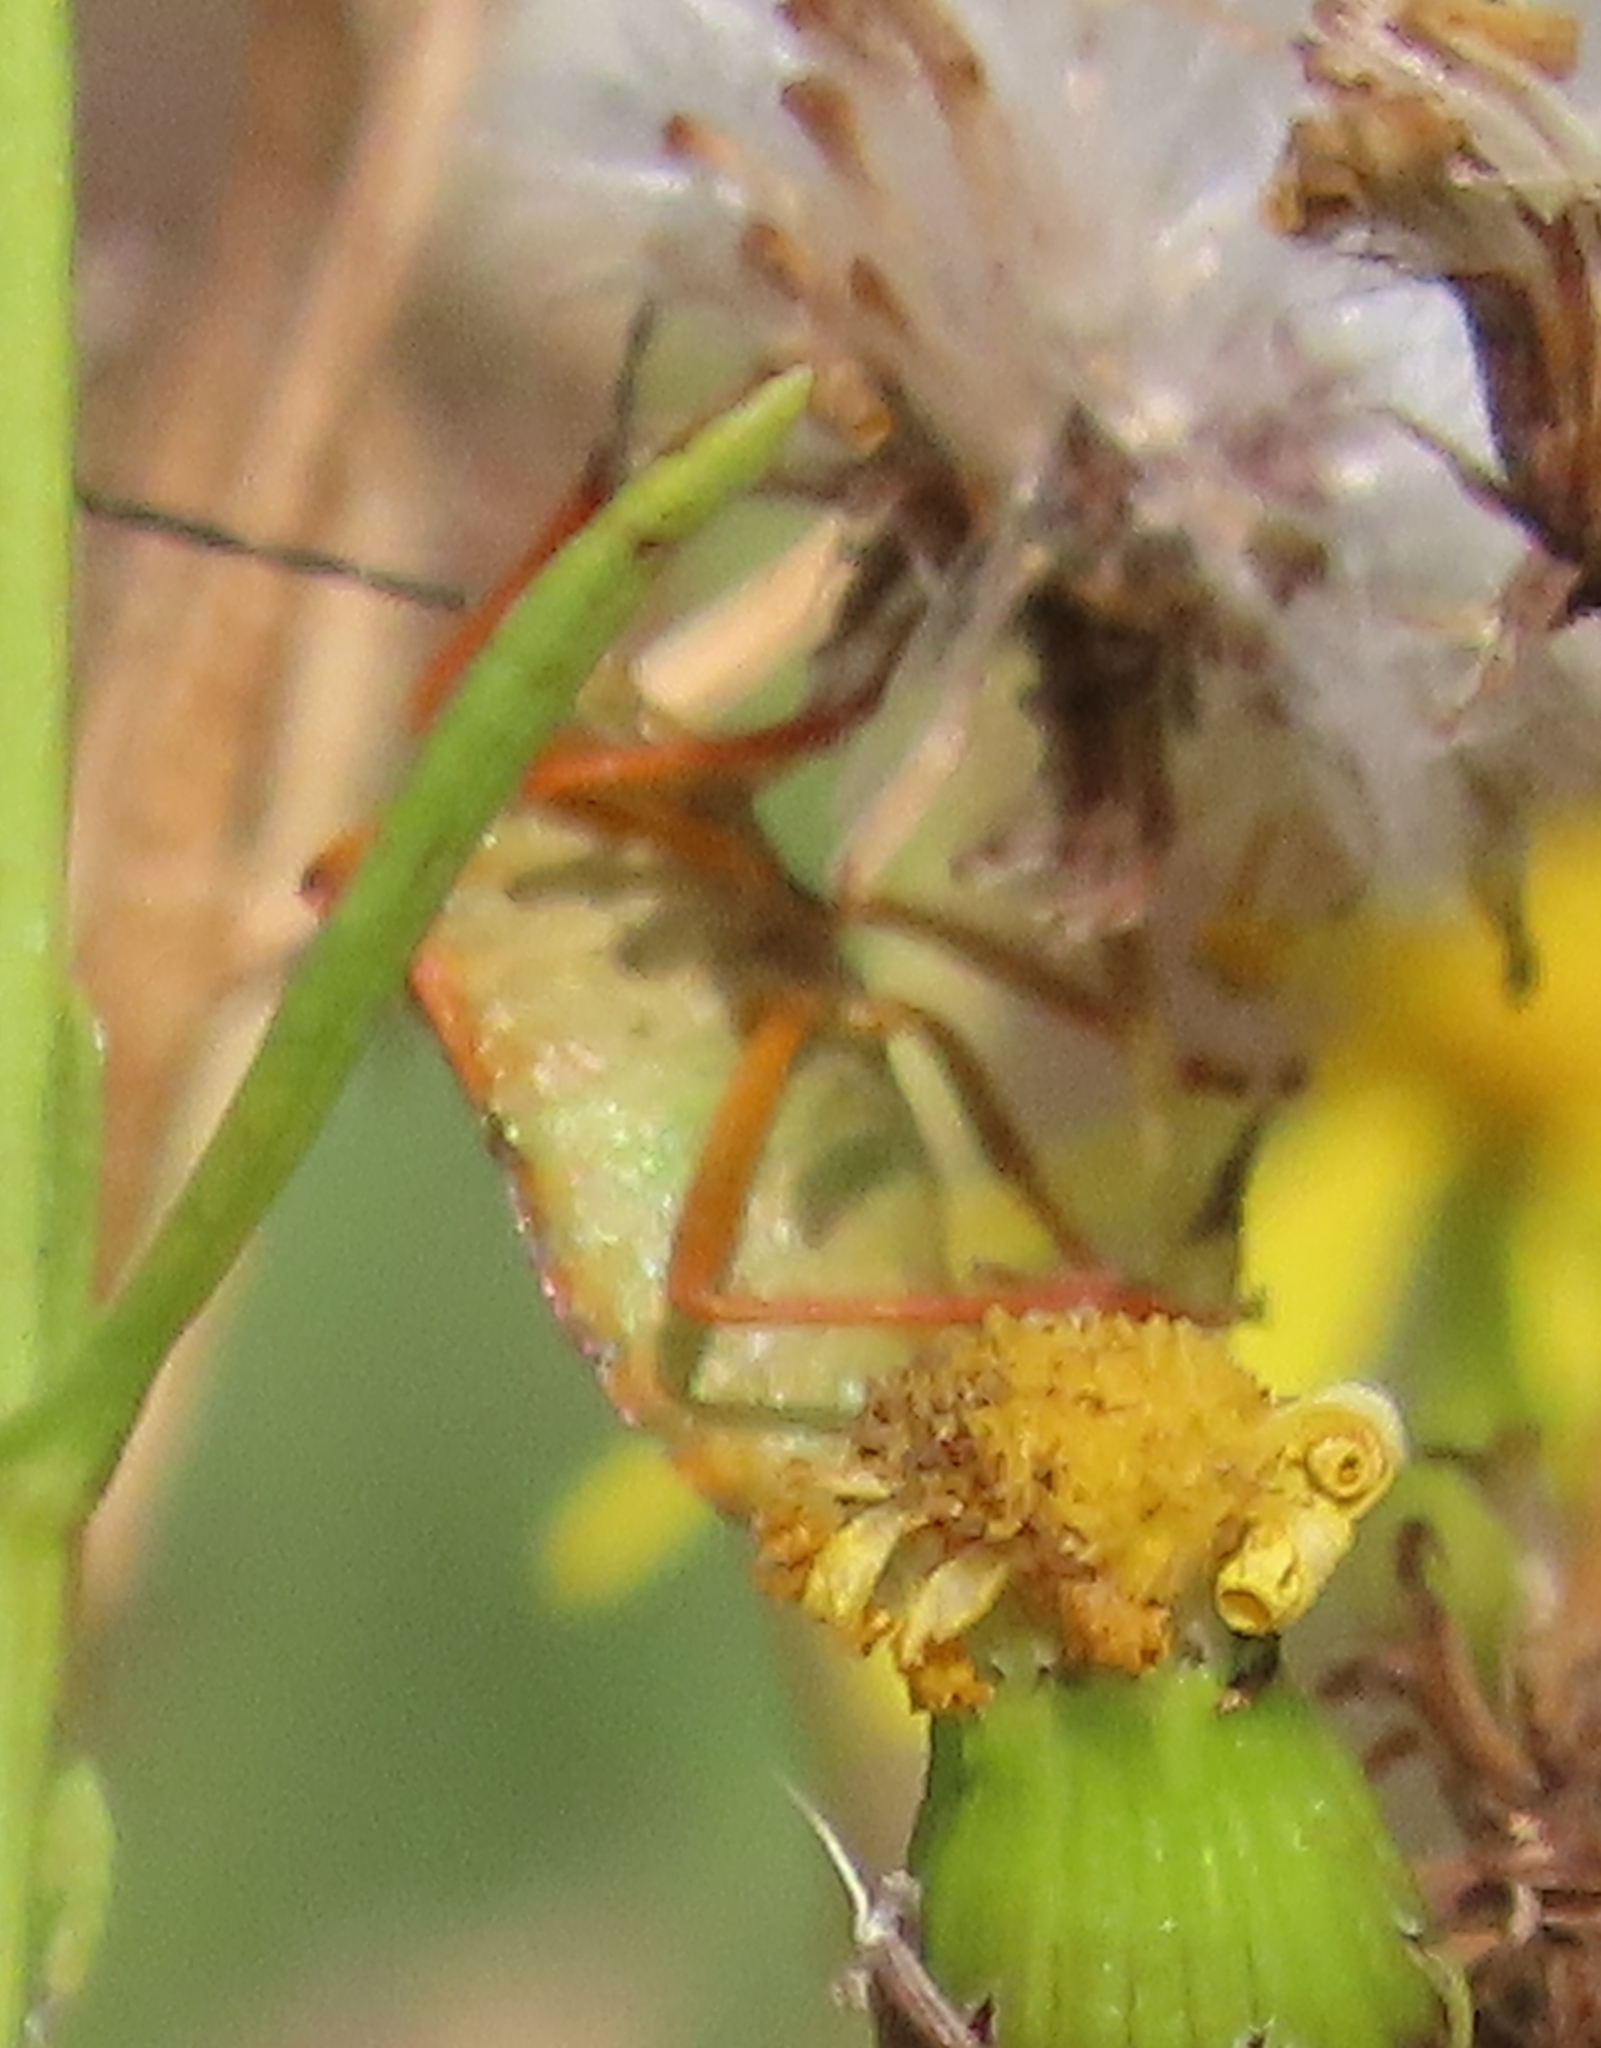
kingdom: Animalia
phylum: Arthropoda
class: Insecta
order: Hemiptera
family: Pentatomidae
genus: Carpocoris
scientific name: Carpocoris mediterraneus
